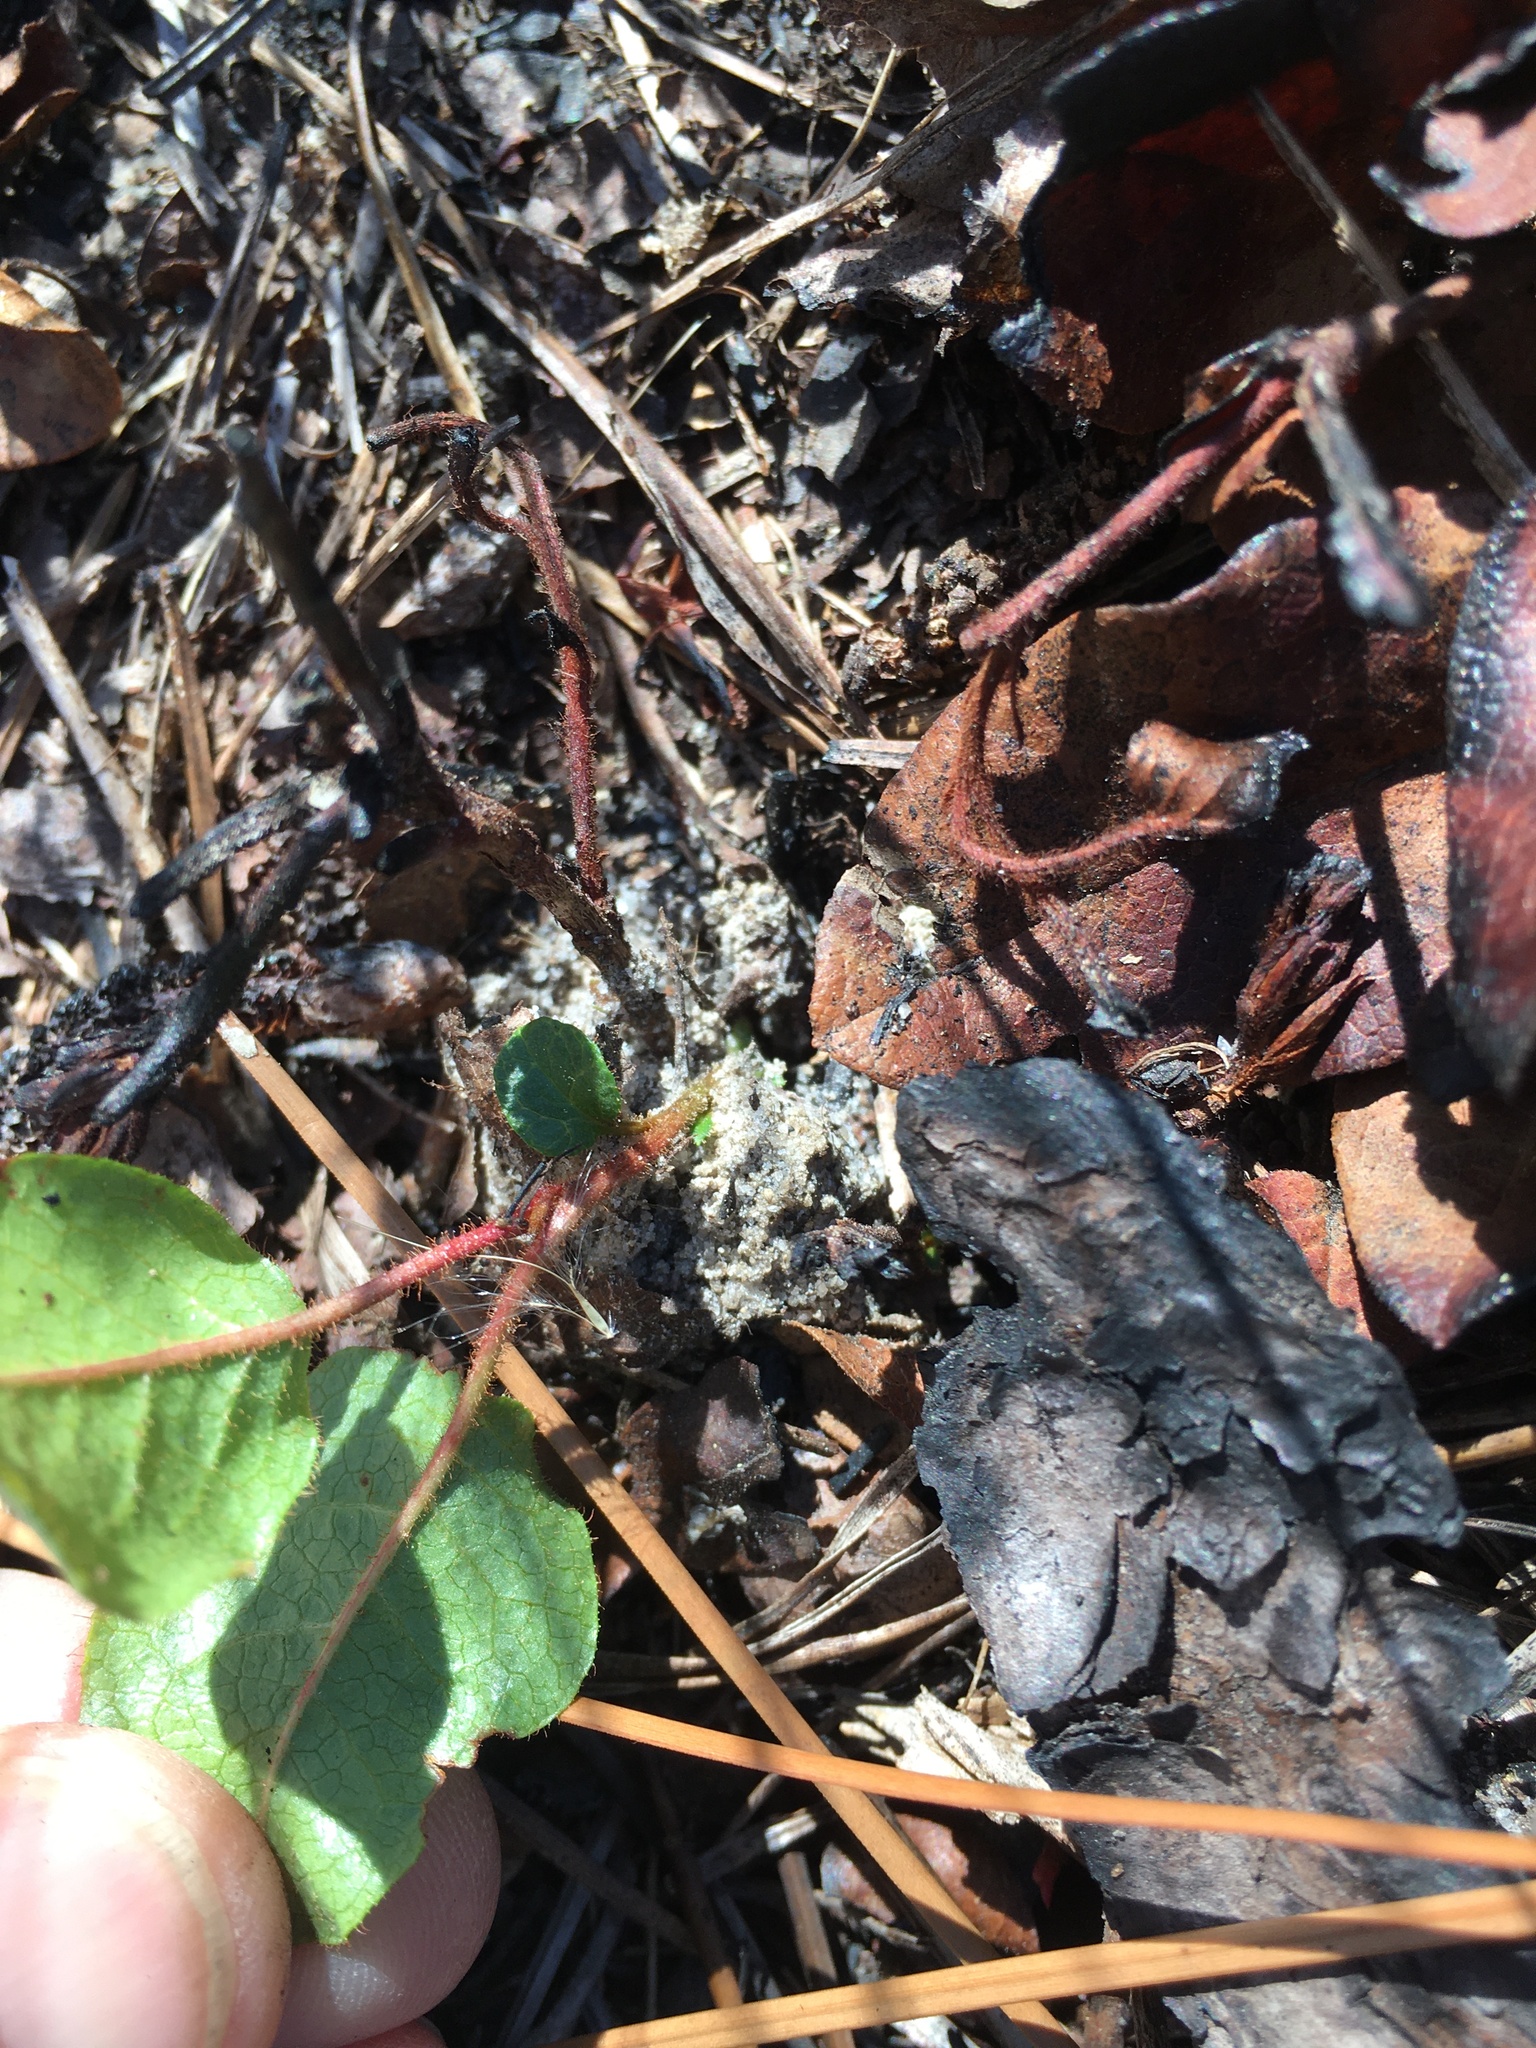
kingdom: Plantae
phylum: Tracheophyta
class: Magnoliopsida
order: Ericales
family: Ericaceae
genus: Epigaea
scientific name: Epigaea repens
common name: Gravelroot
